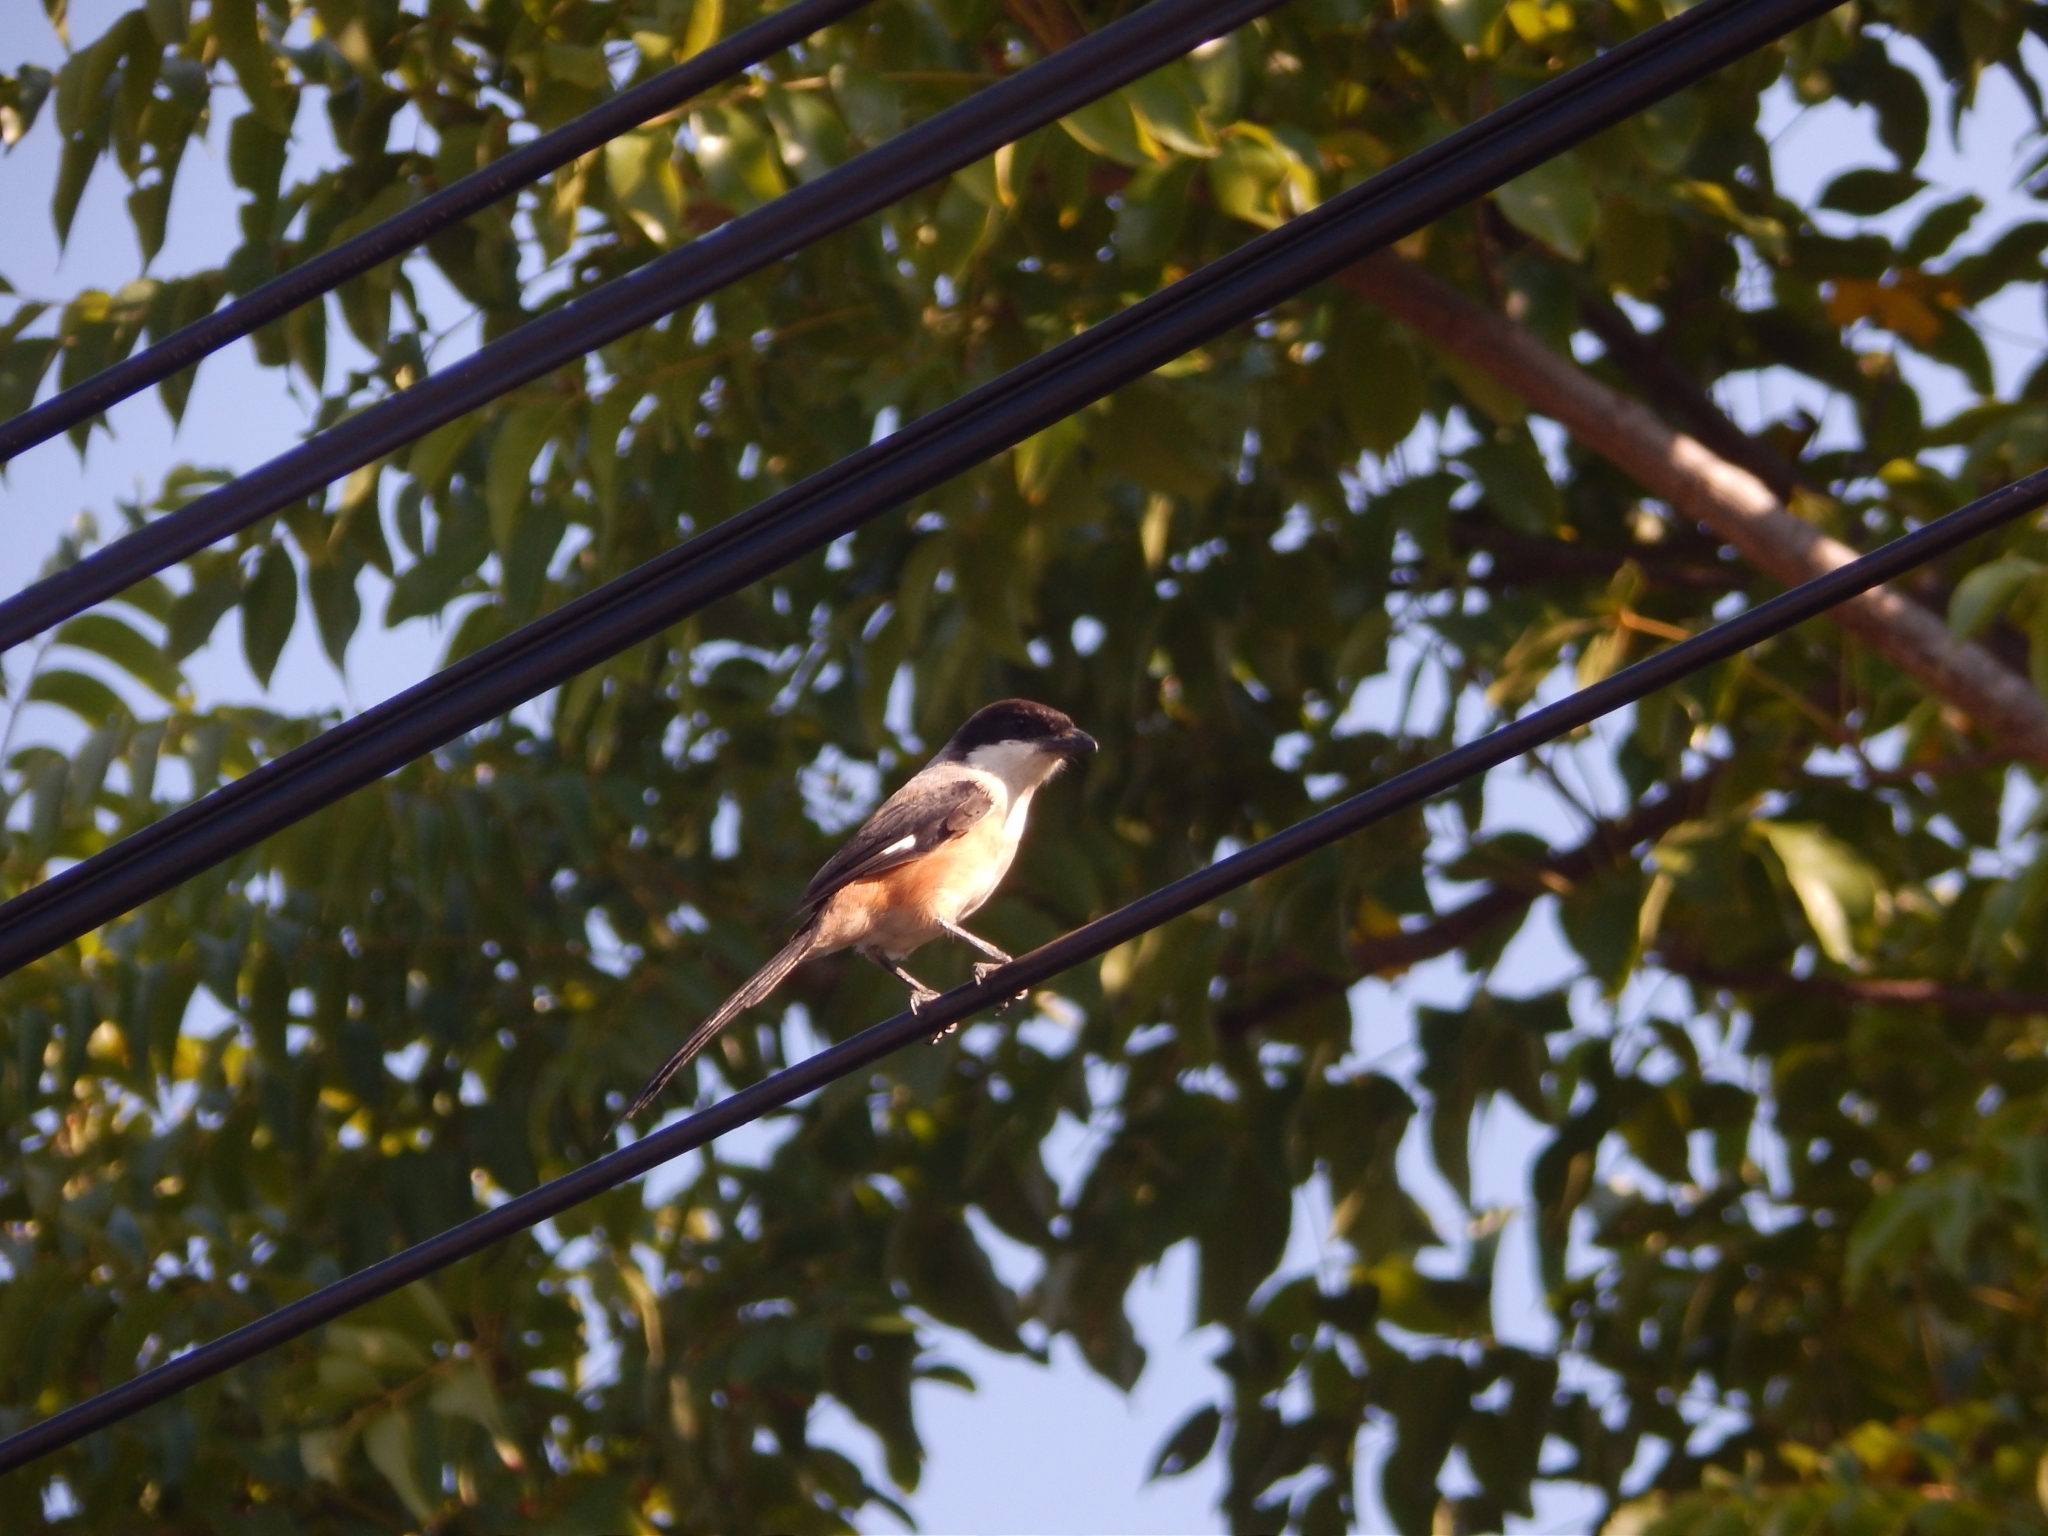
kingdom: Animalia
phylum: Chordata
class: Aves
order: Passeriformes
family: Laniidae
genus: Lanius
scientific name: Lanius schach
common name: Long-tailed shrike
